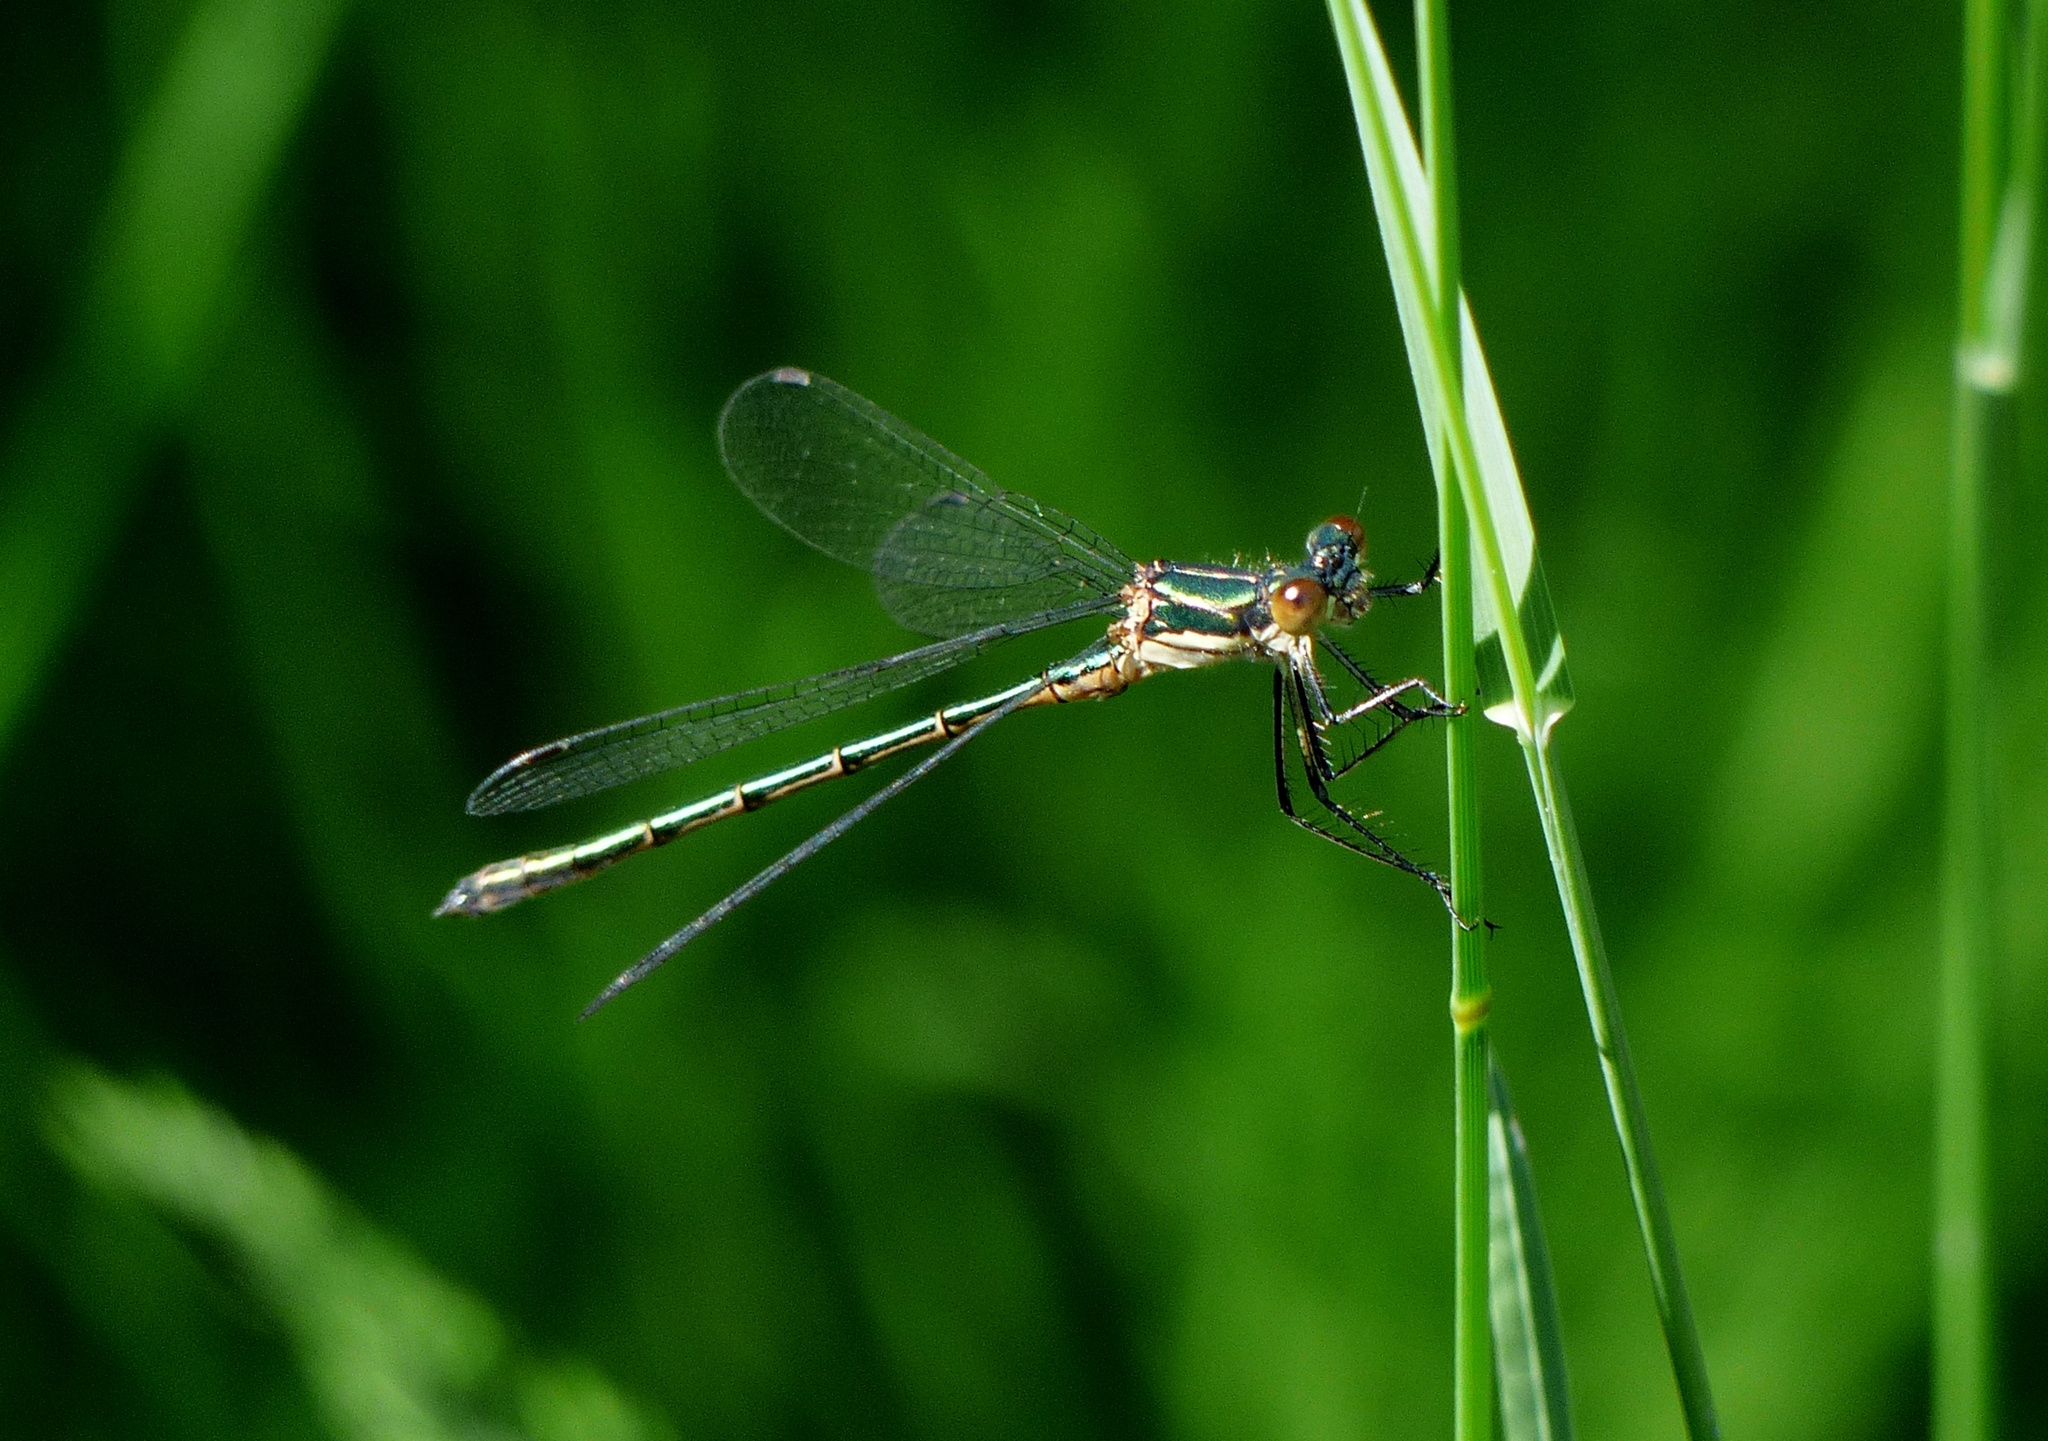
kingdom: Animalia
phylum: Arthropoda
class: Insecta
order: Odonata
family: Lestidae
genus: Lestes
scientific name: Lestes dryas
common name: Scarce emerald damselfly
